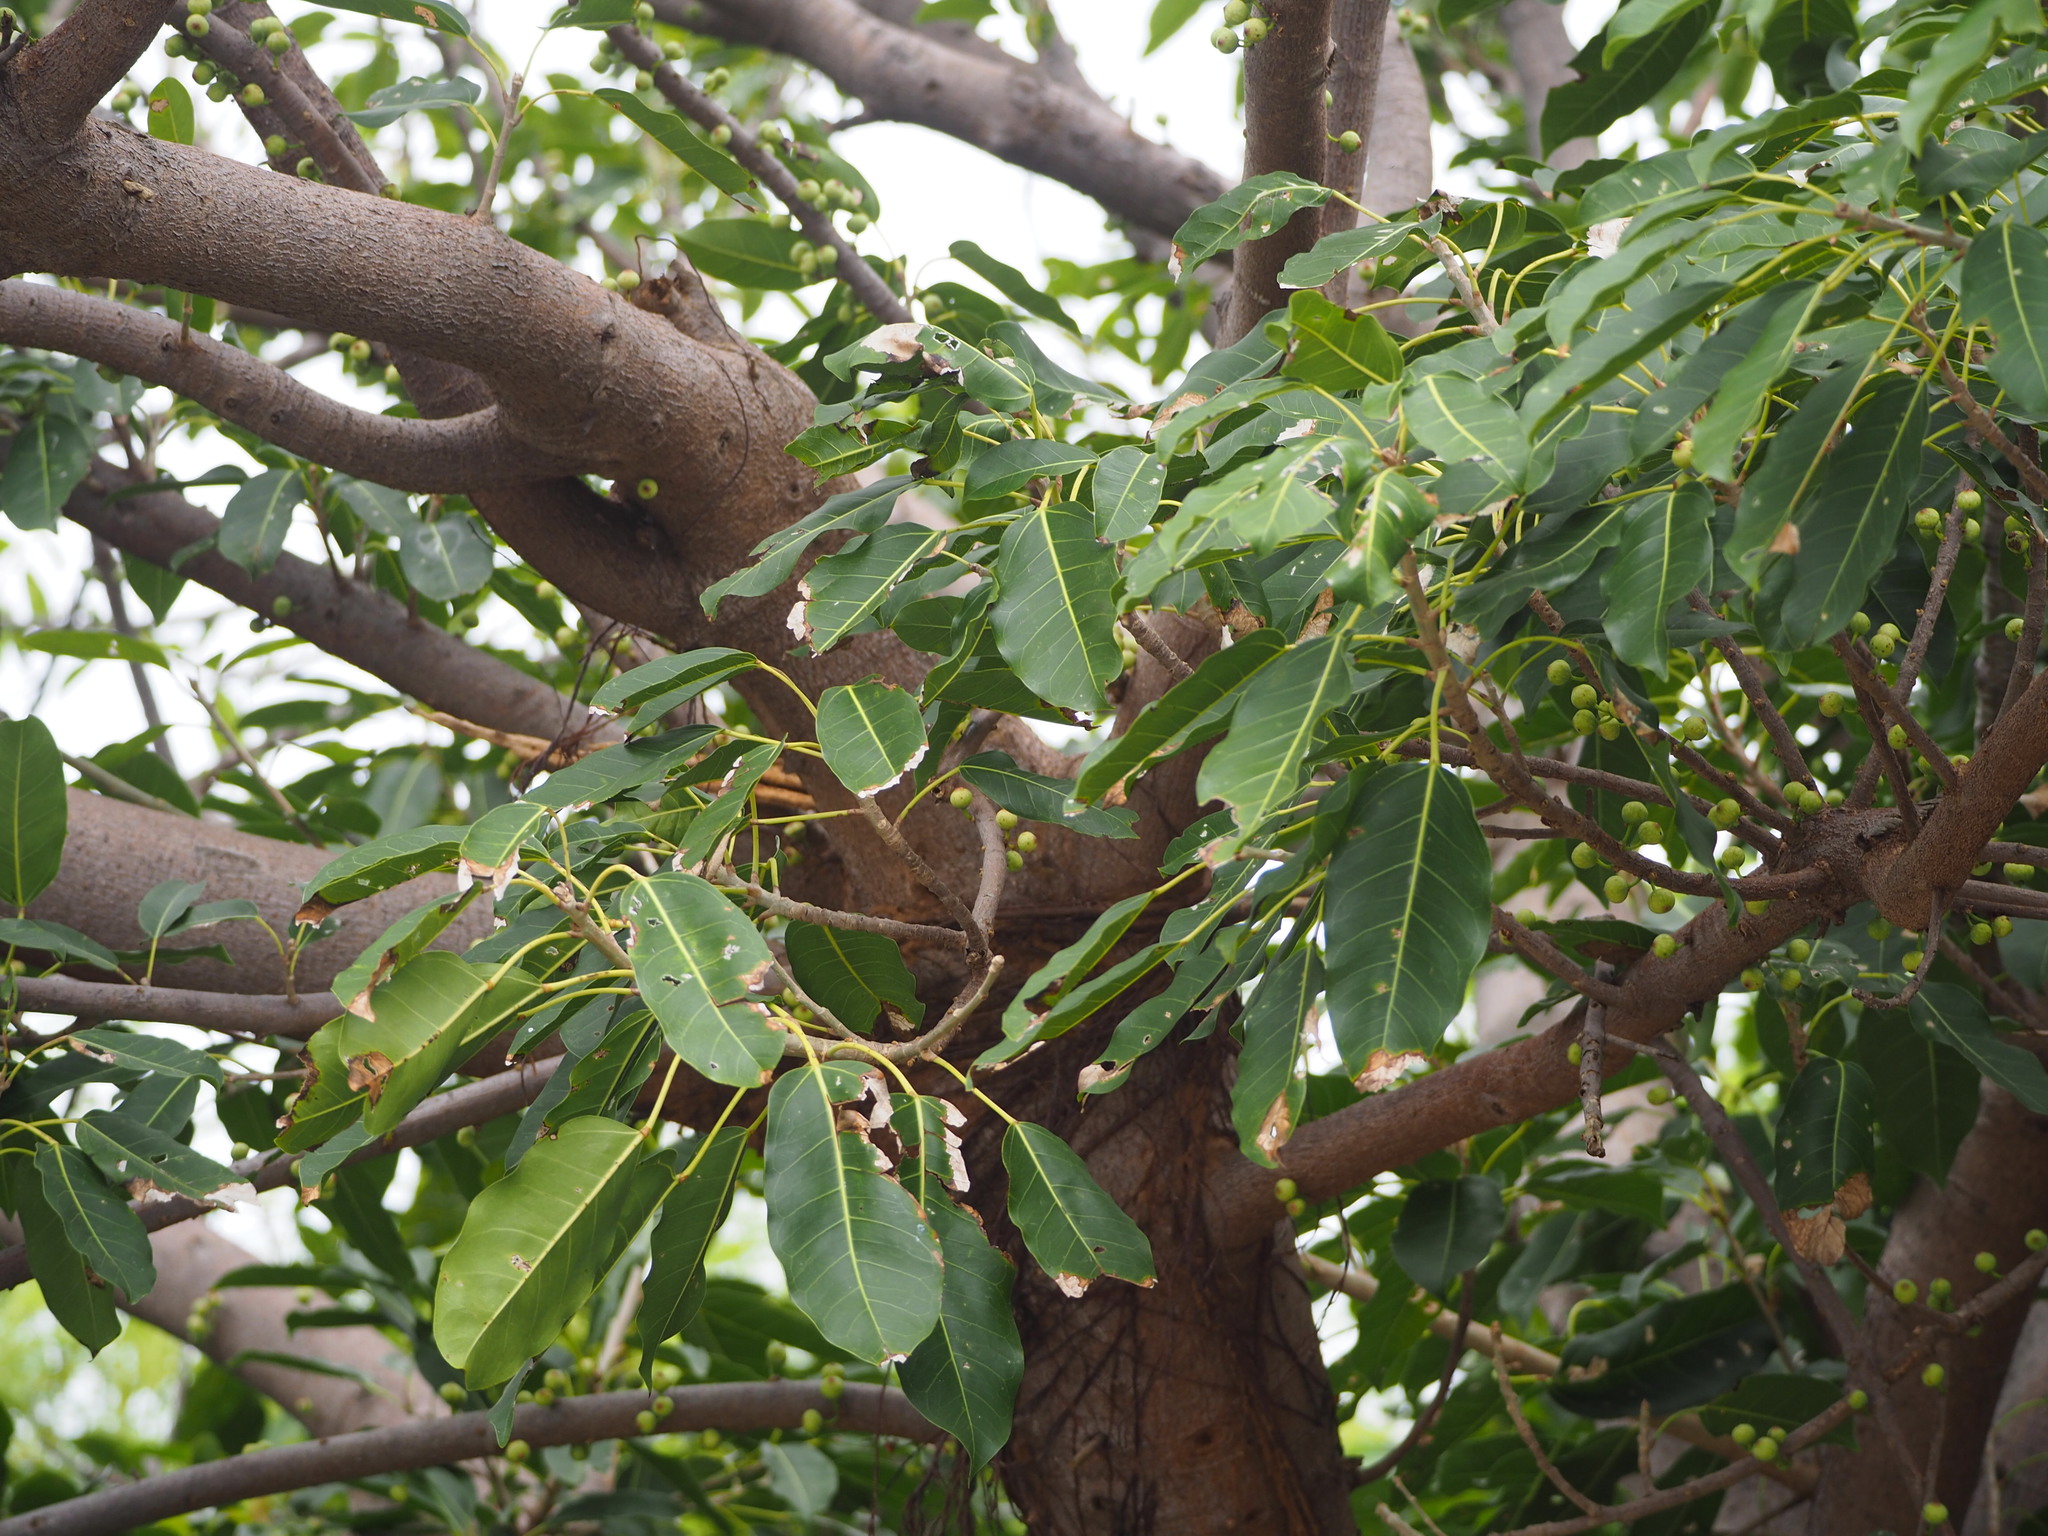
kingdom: Plantae
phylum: Tracheophyta
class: Magnoliopsida
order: Rosales
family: Moraceae
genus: Ficus
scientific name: Ficus subpisocarpa
